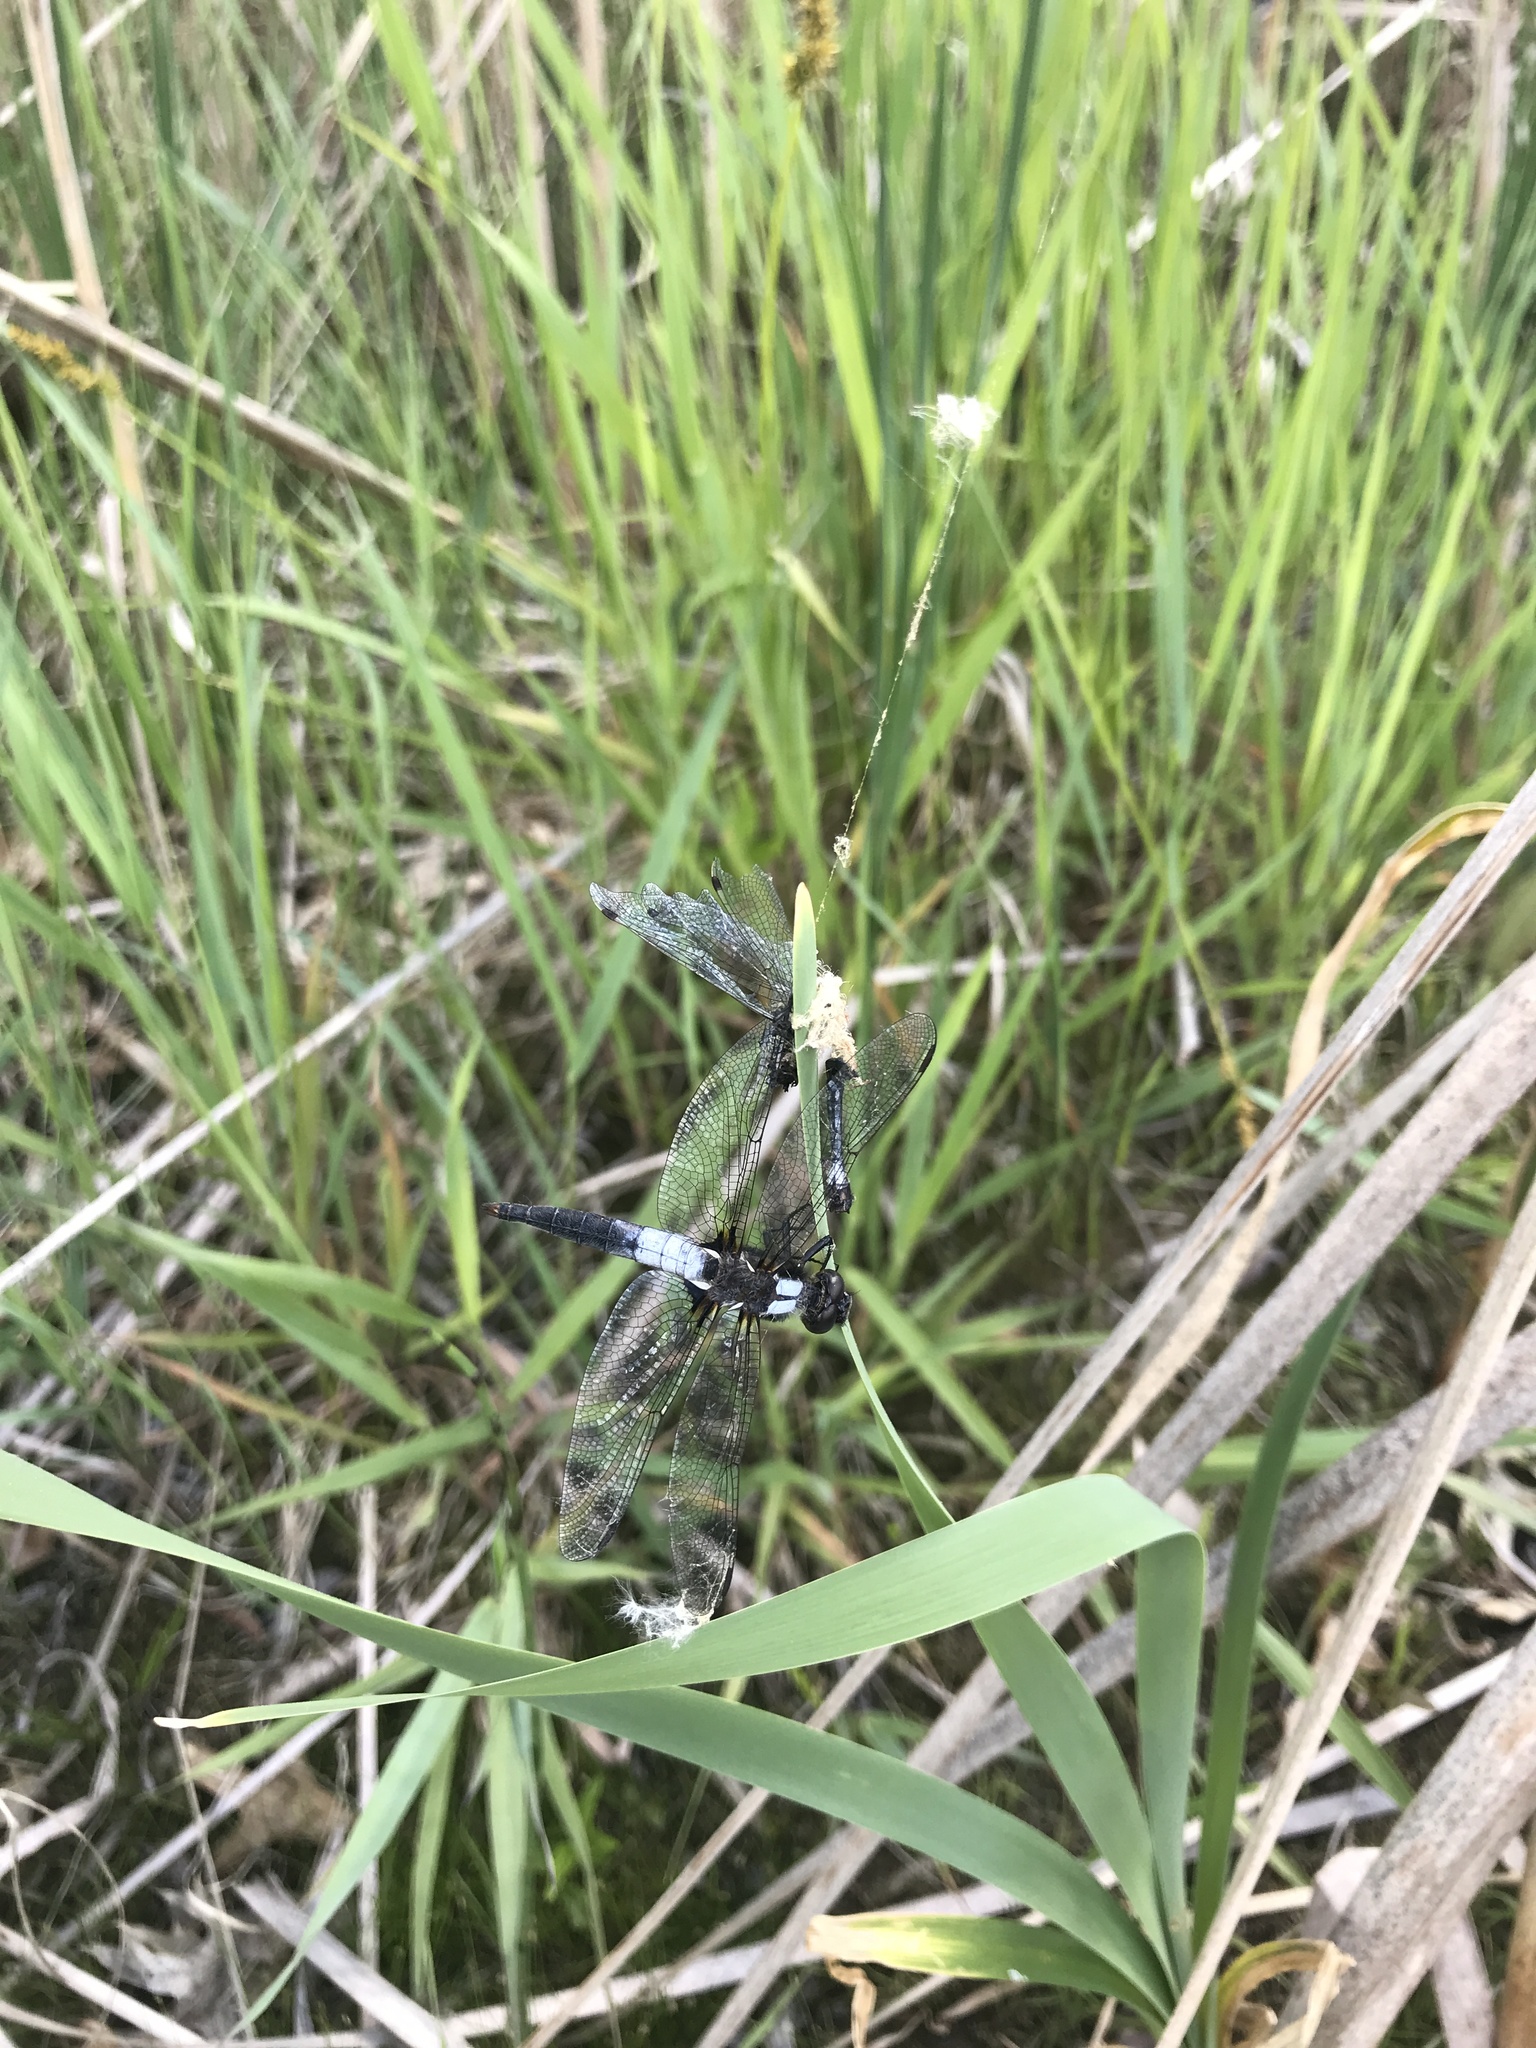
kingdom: Animalia
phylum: Arthropoda
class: Insecta
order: Odonata
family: Libellulidae
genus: Ladona
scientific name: Ladona julia
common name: Chalk-fronted corporal
